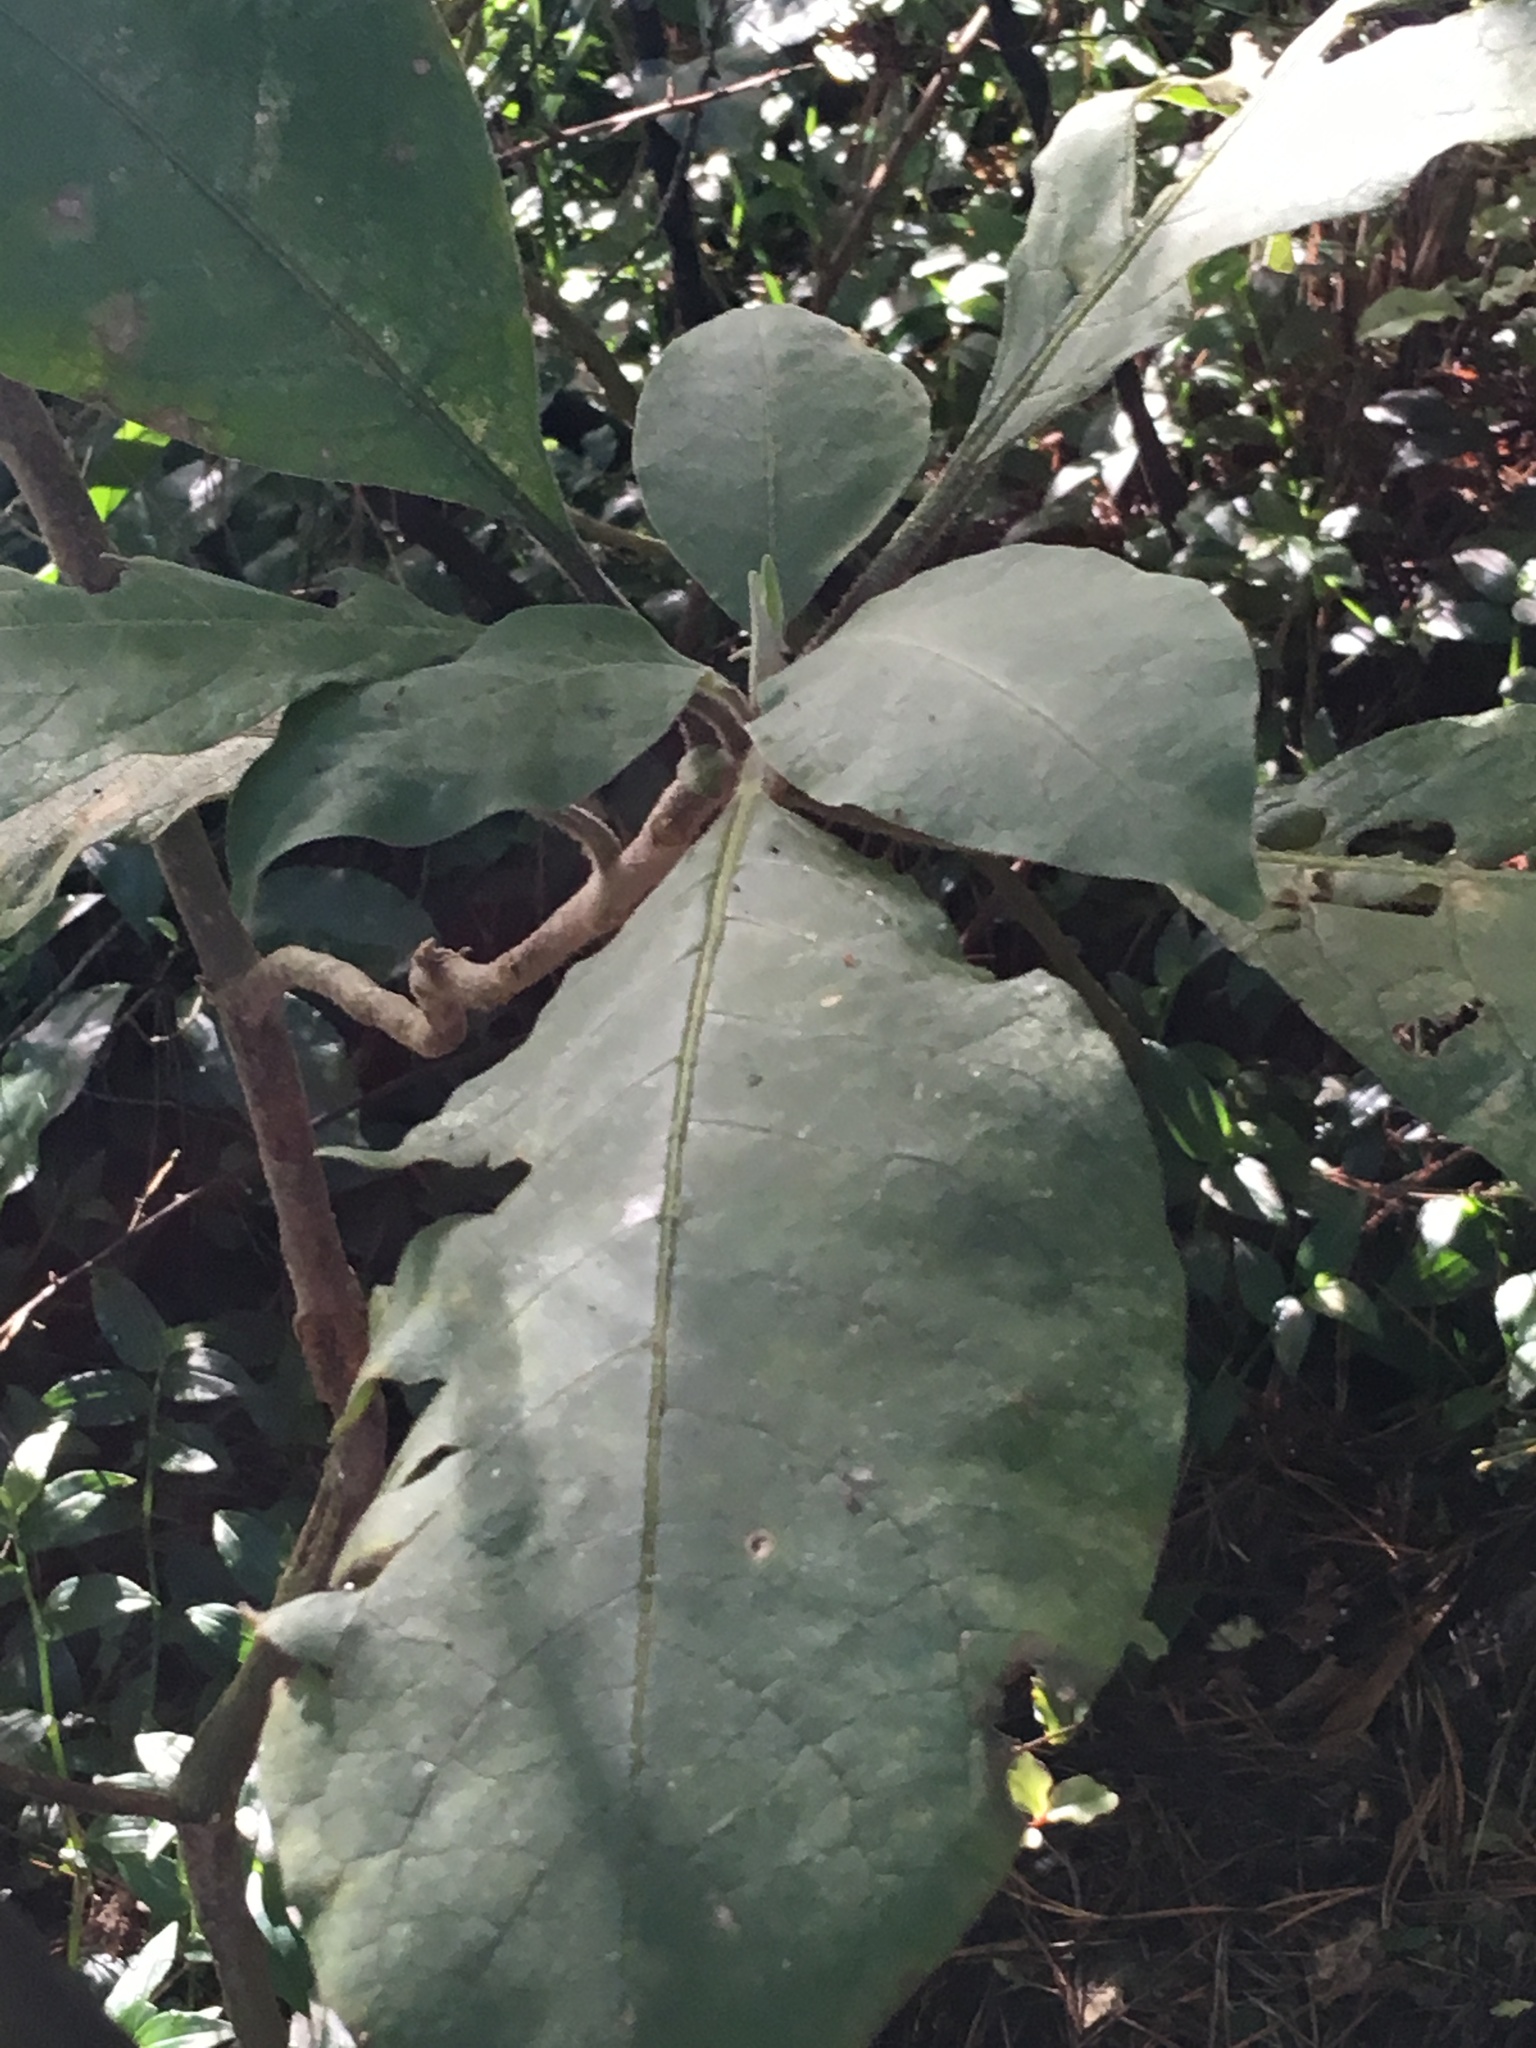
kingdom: Plantae
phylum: Tracheophyta
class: Magnoliopsida
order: Solanales
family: Solanaceae
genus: Solanum
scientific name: Solanum mauritianum
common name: Earleaf nightshade
